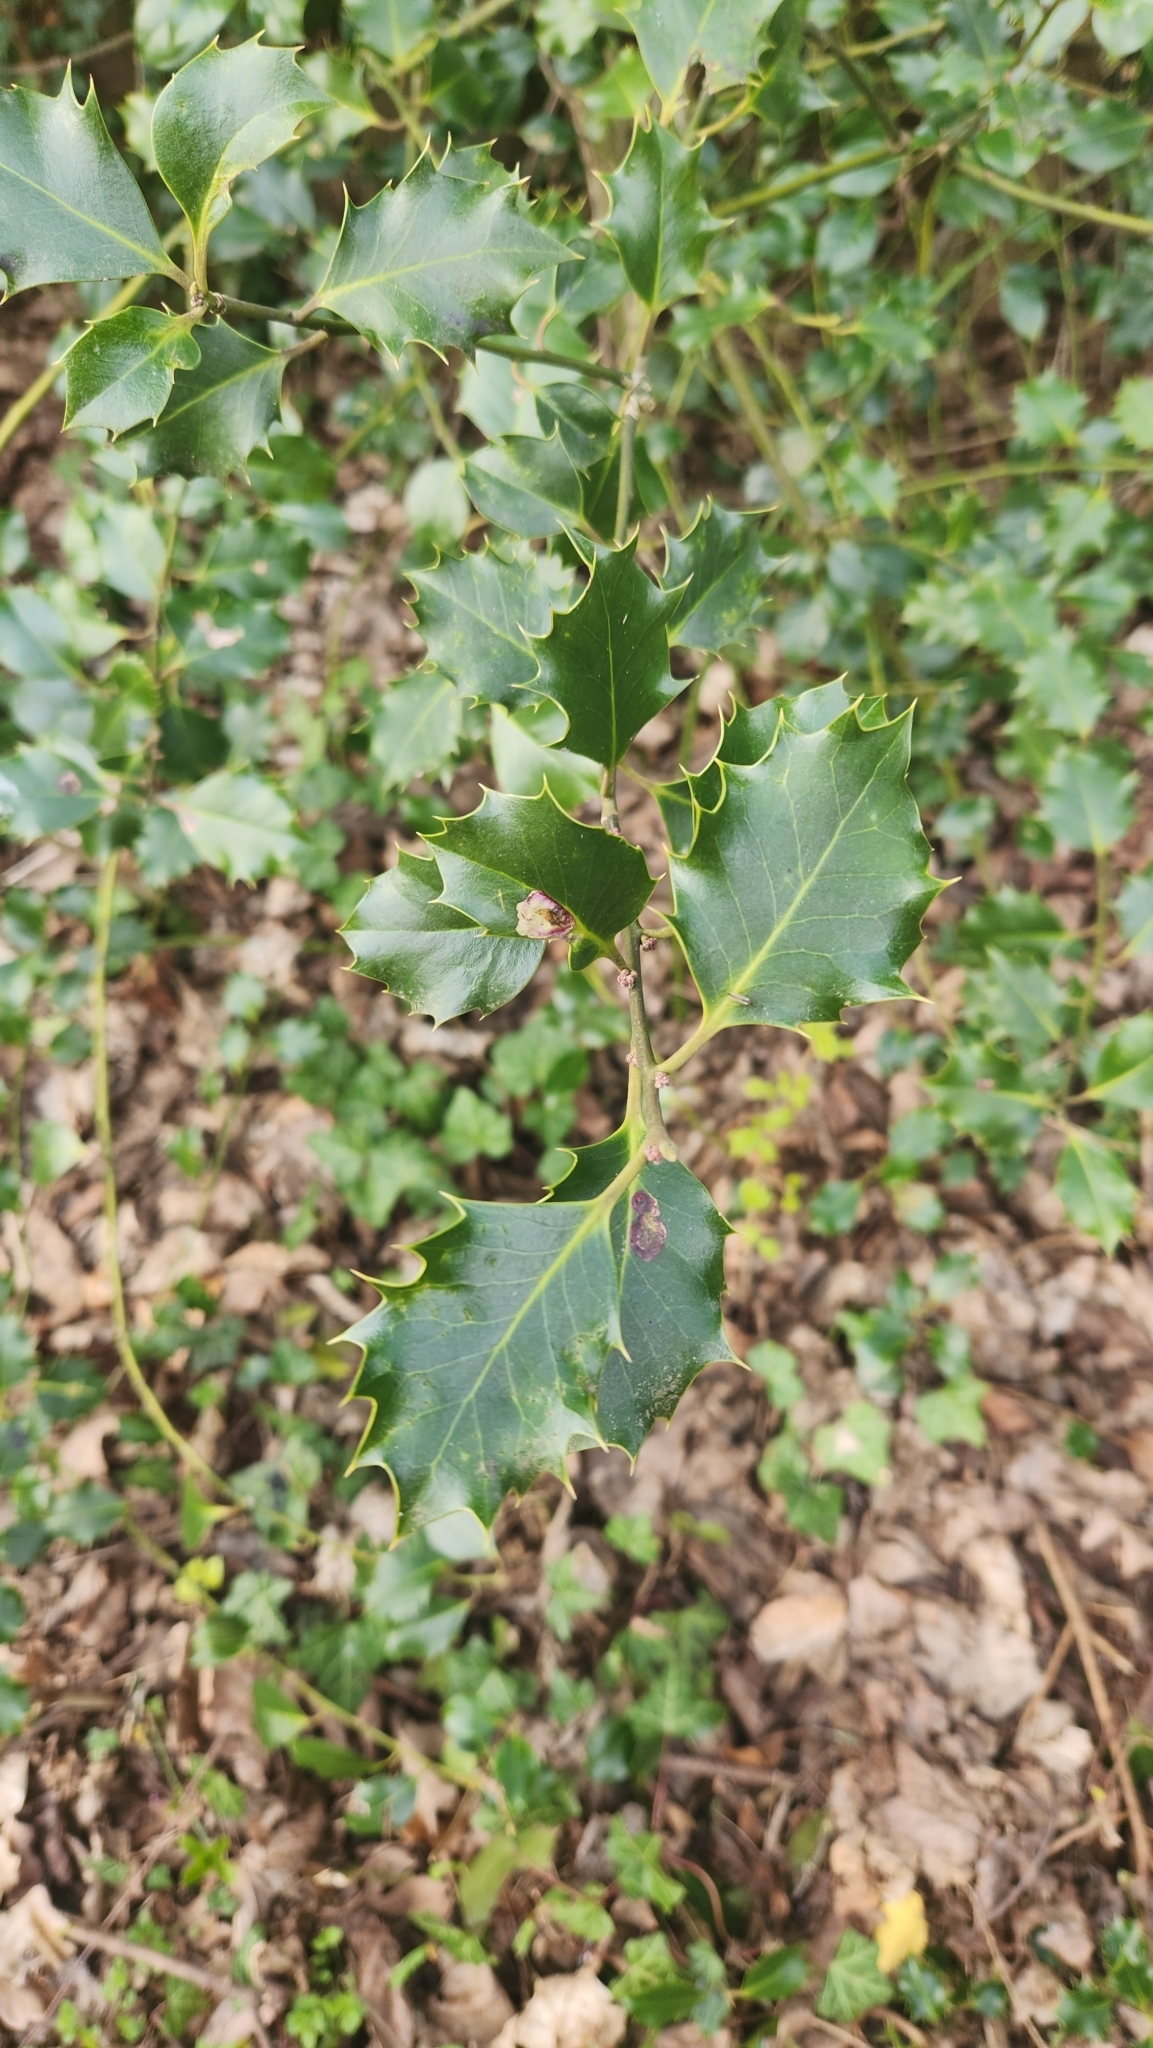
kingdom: Plantae
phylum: Tracheophyta
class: Magnoliopsida
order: Aquifoliales
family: Aquifoliaceae
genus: Ilex
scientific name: Ilex aquifolium
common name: English holly
